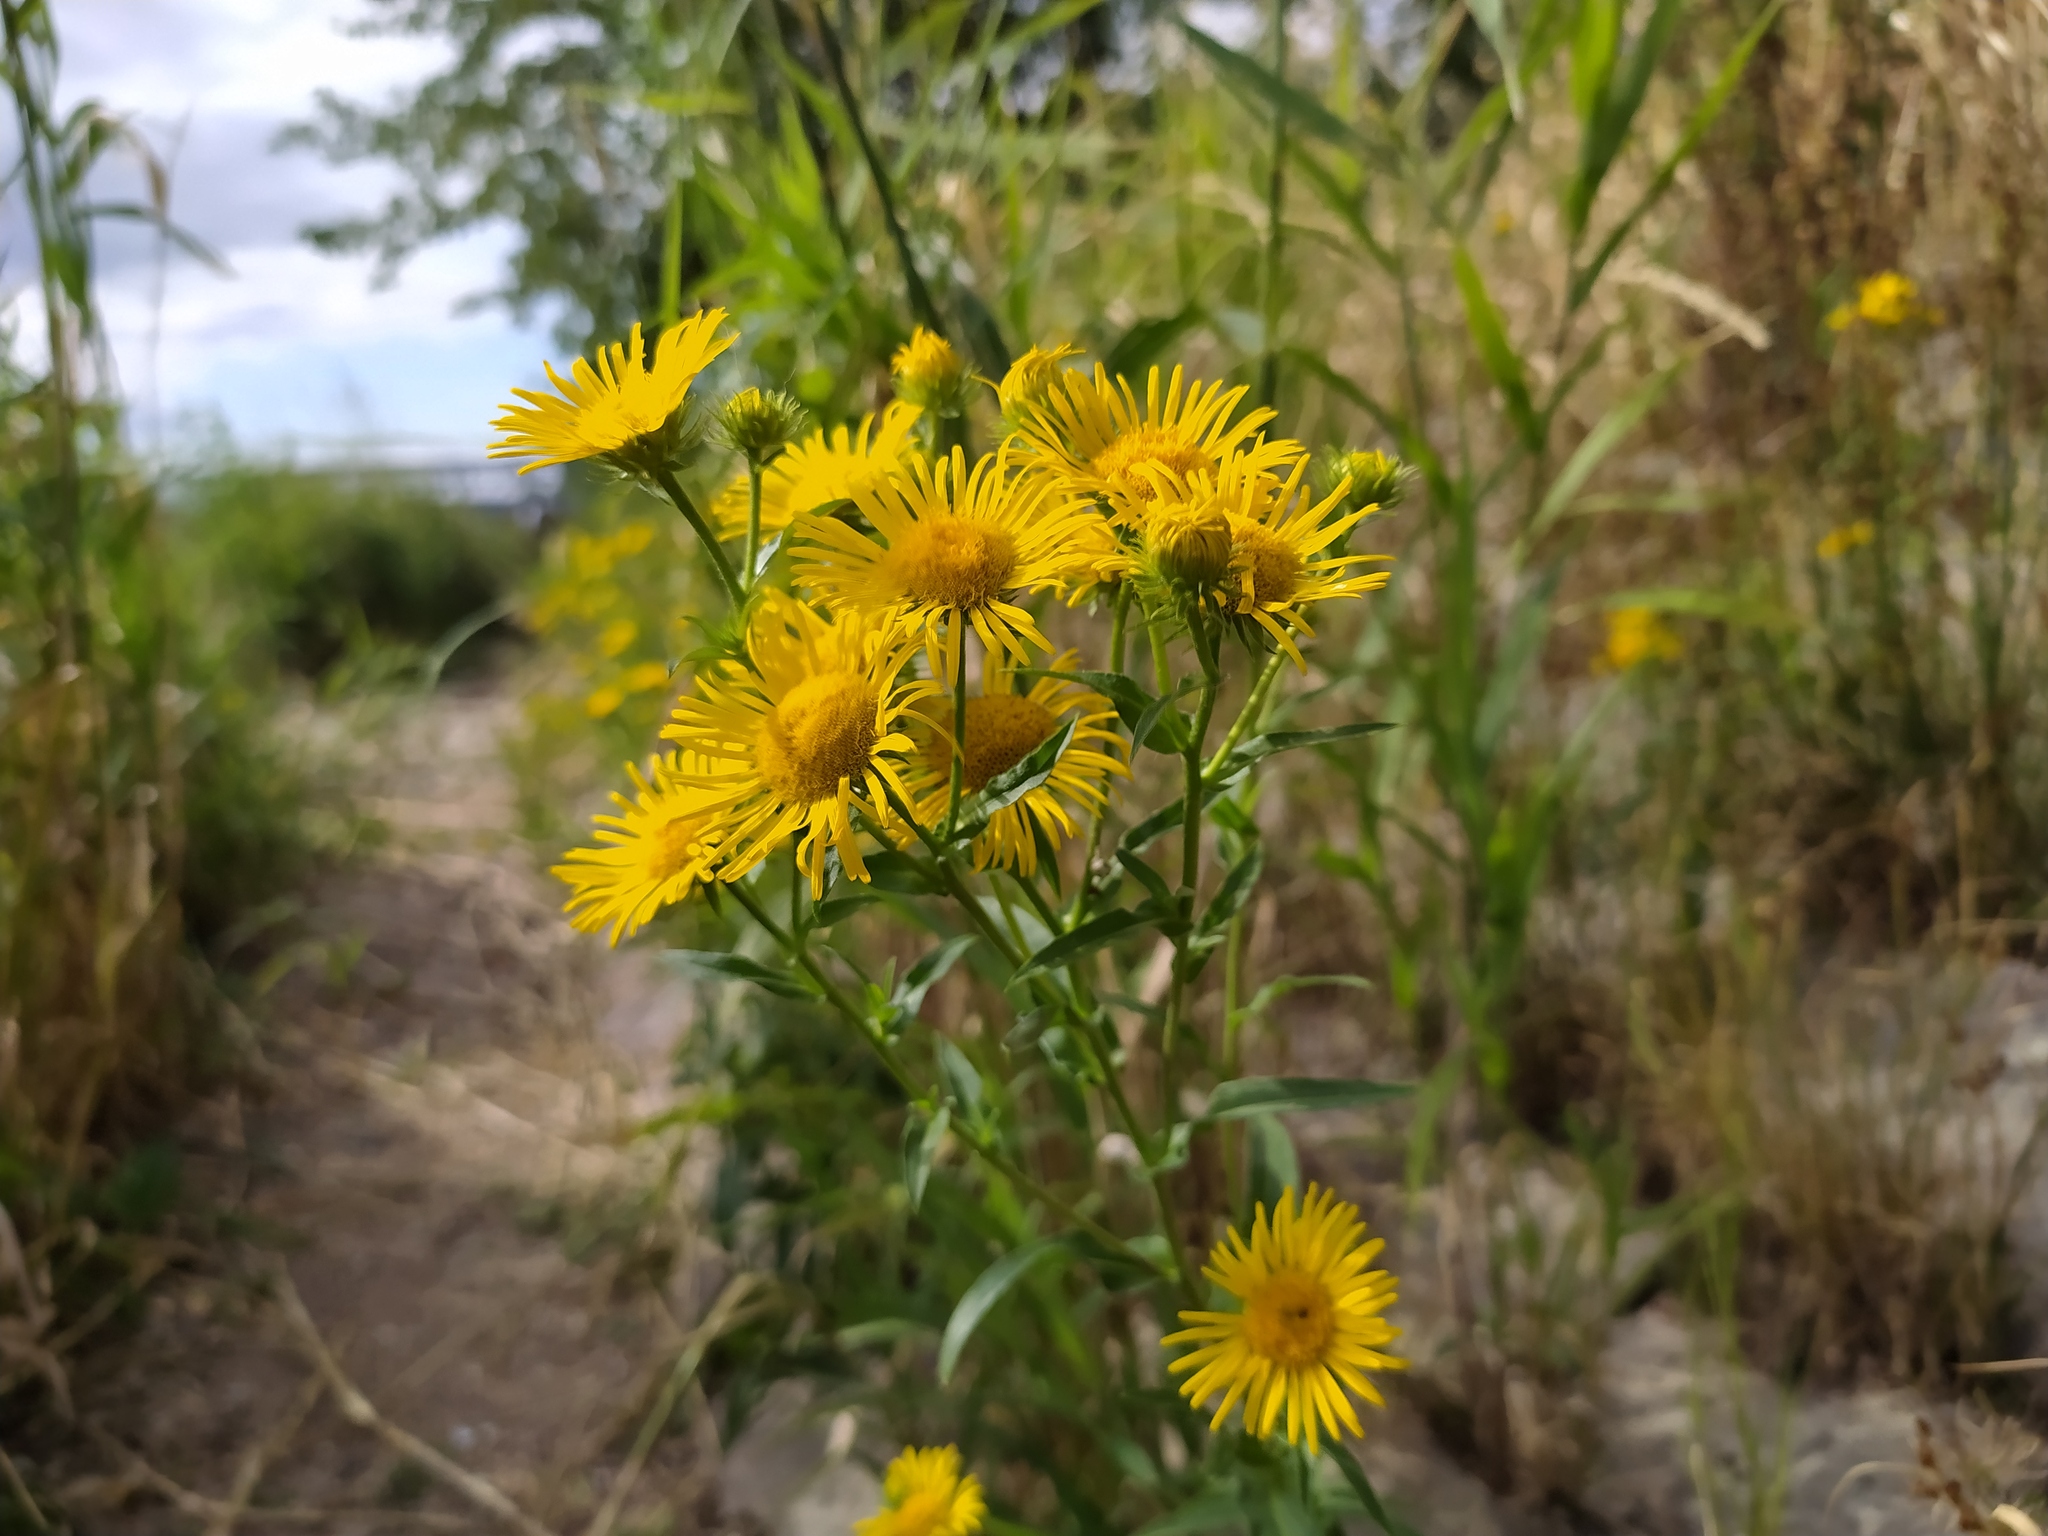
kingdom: Plantae
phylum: Tracheophyta
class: Magnoliopsida
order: Asterales
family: Asteraceae
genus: Pentanema
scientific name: Pentanema britannicum
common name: British elecampane
